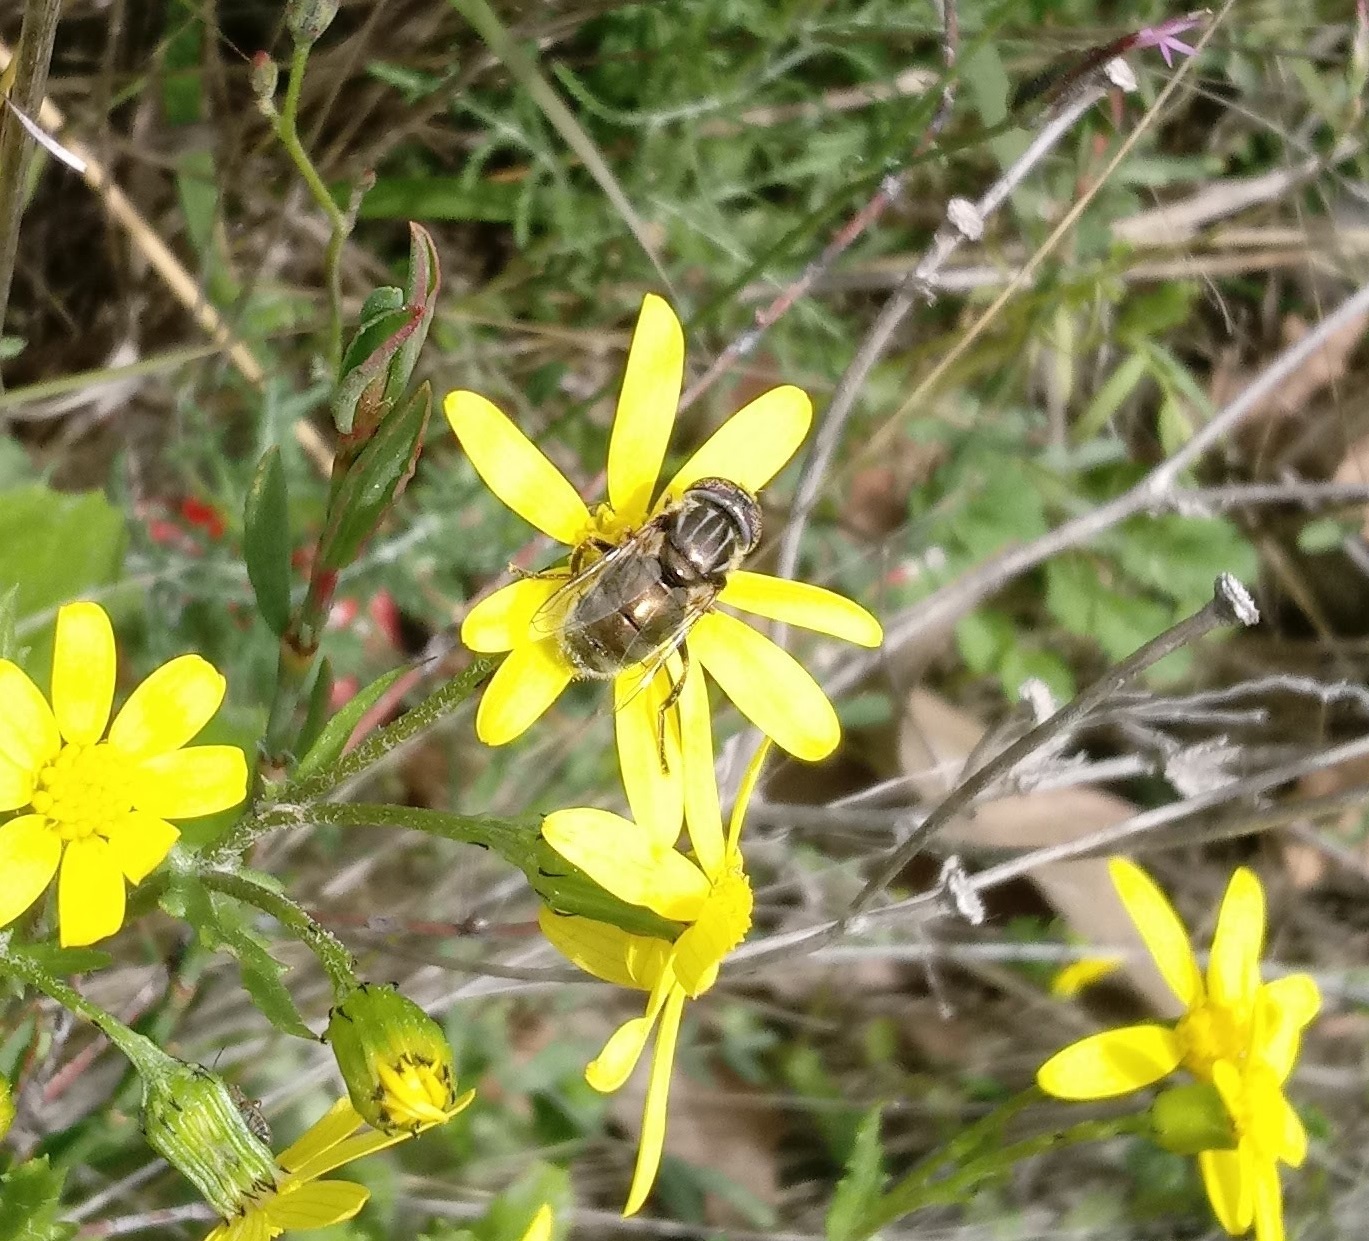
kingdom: Animalia
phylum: Arthropoda
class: Insecta
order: Diptera
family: Syrphidae
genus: Eristalinus
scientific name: Eristalinus aeneus
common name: Syrphid fly
